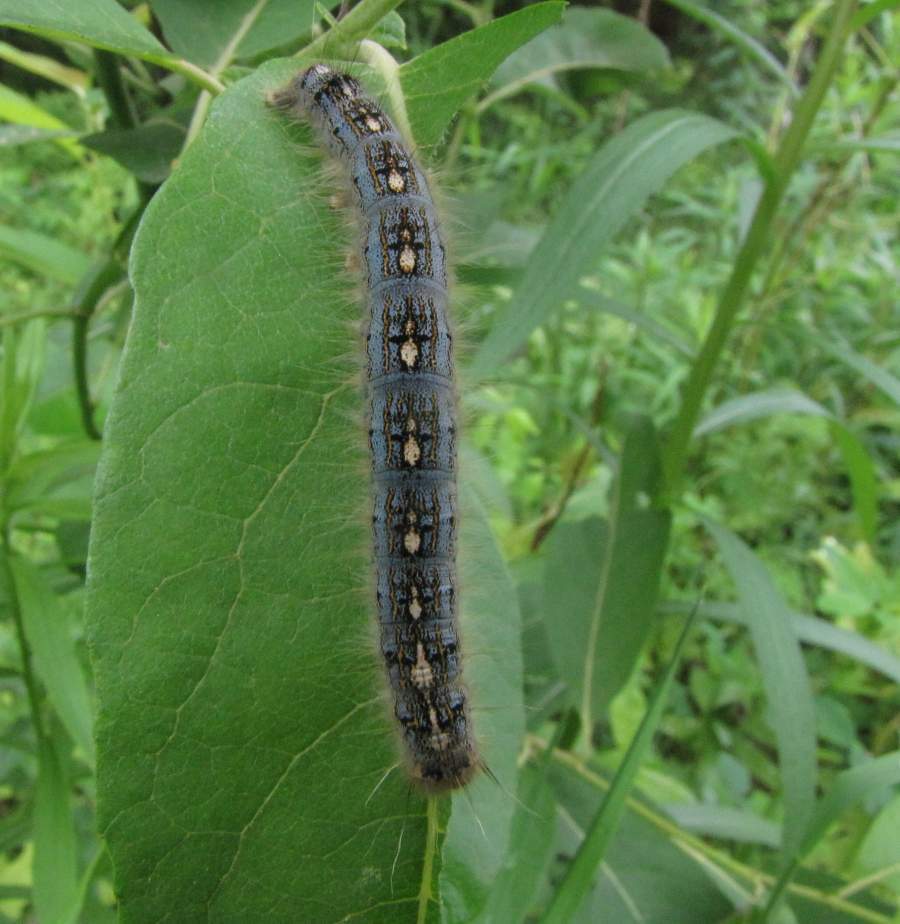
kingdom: Animalia
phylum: Arthropoda
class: Insecta
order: Lepidoptera
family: Lasiocampidae
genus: Malacosoma
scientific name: Malacosoma disstria
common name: Forest tent caterpillar
